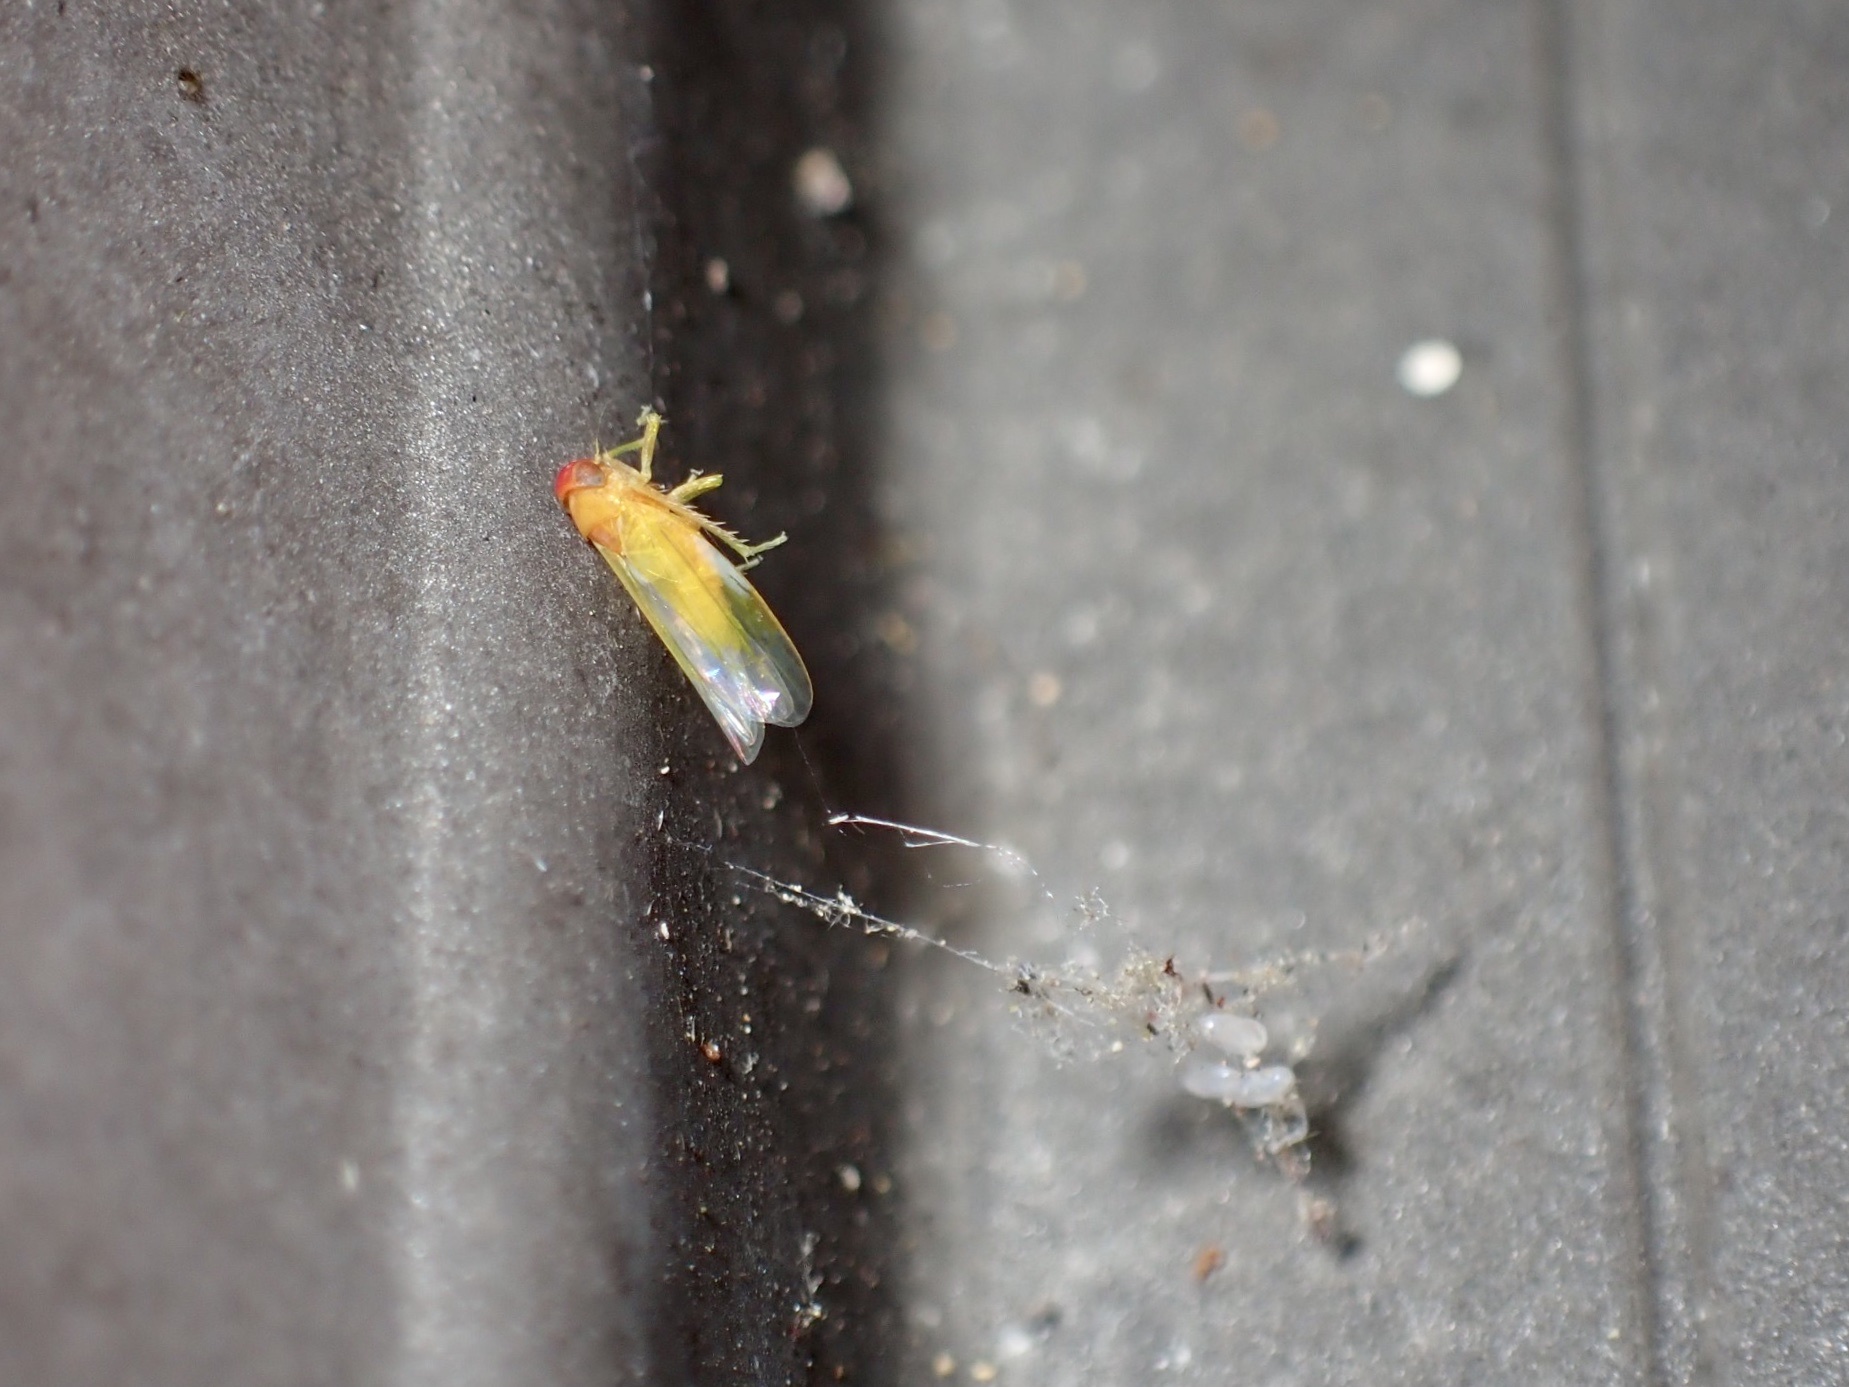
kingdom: Animalia
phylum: Arthropoda
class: Insecta
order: Hemiptera
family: Cicadellidae
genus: Alebra
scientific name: Alebra rubrafrons
